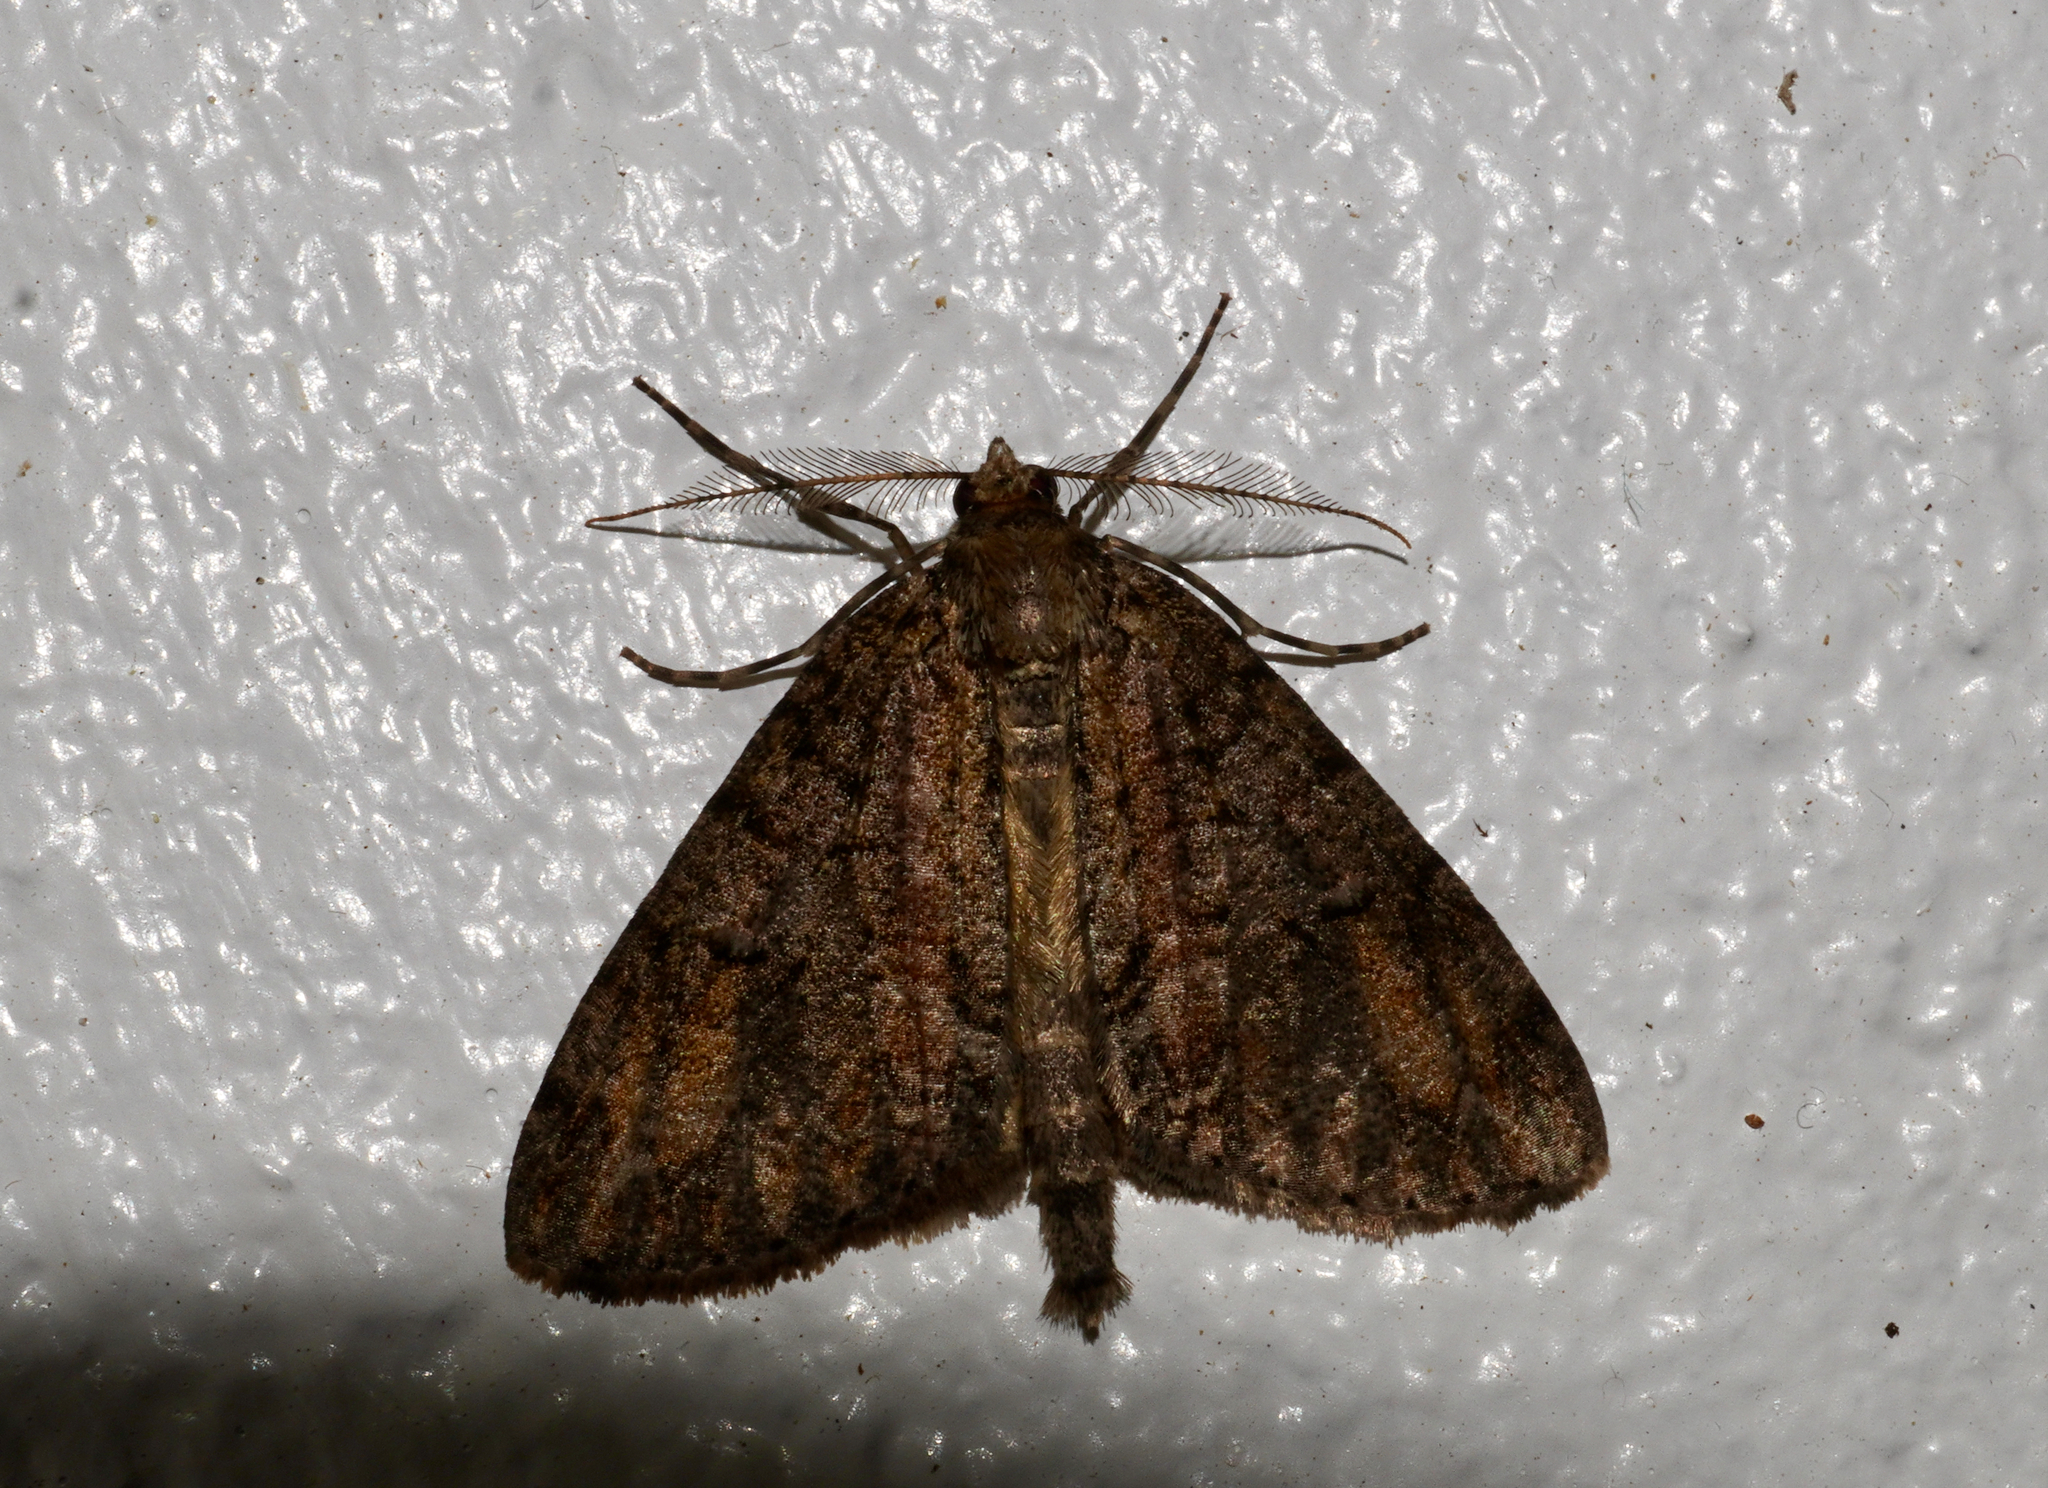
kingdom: Animalia
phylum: Arthropoda
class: Insecta
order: Lepidoptera
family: Geometridae
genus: Pseudocoremia
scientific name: Pseudocoremia suavis
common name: Common forest looper
